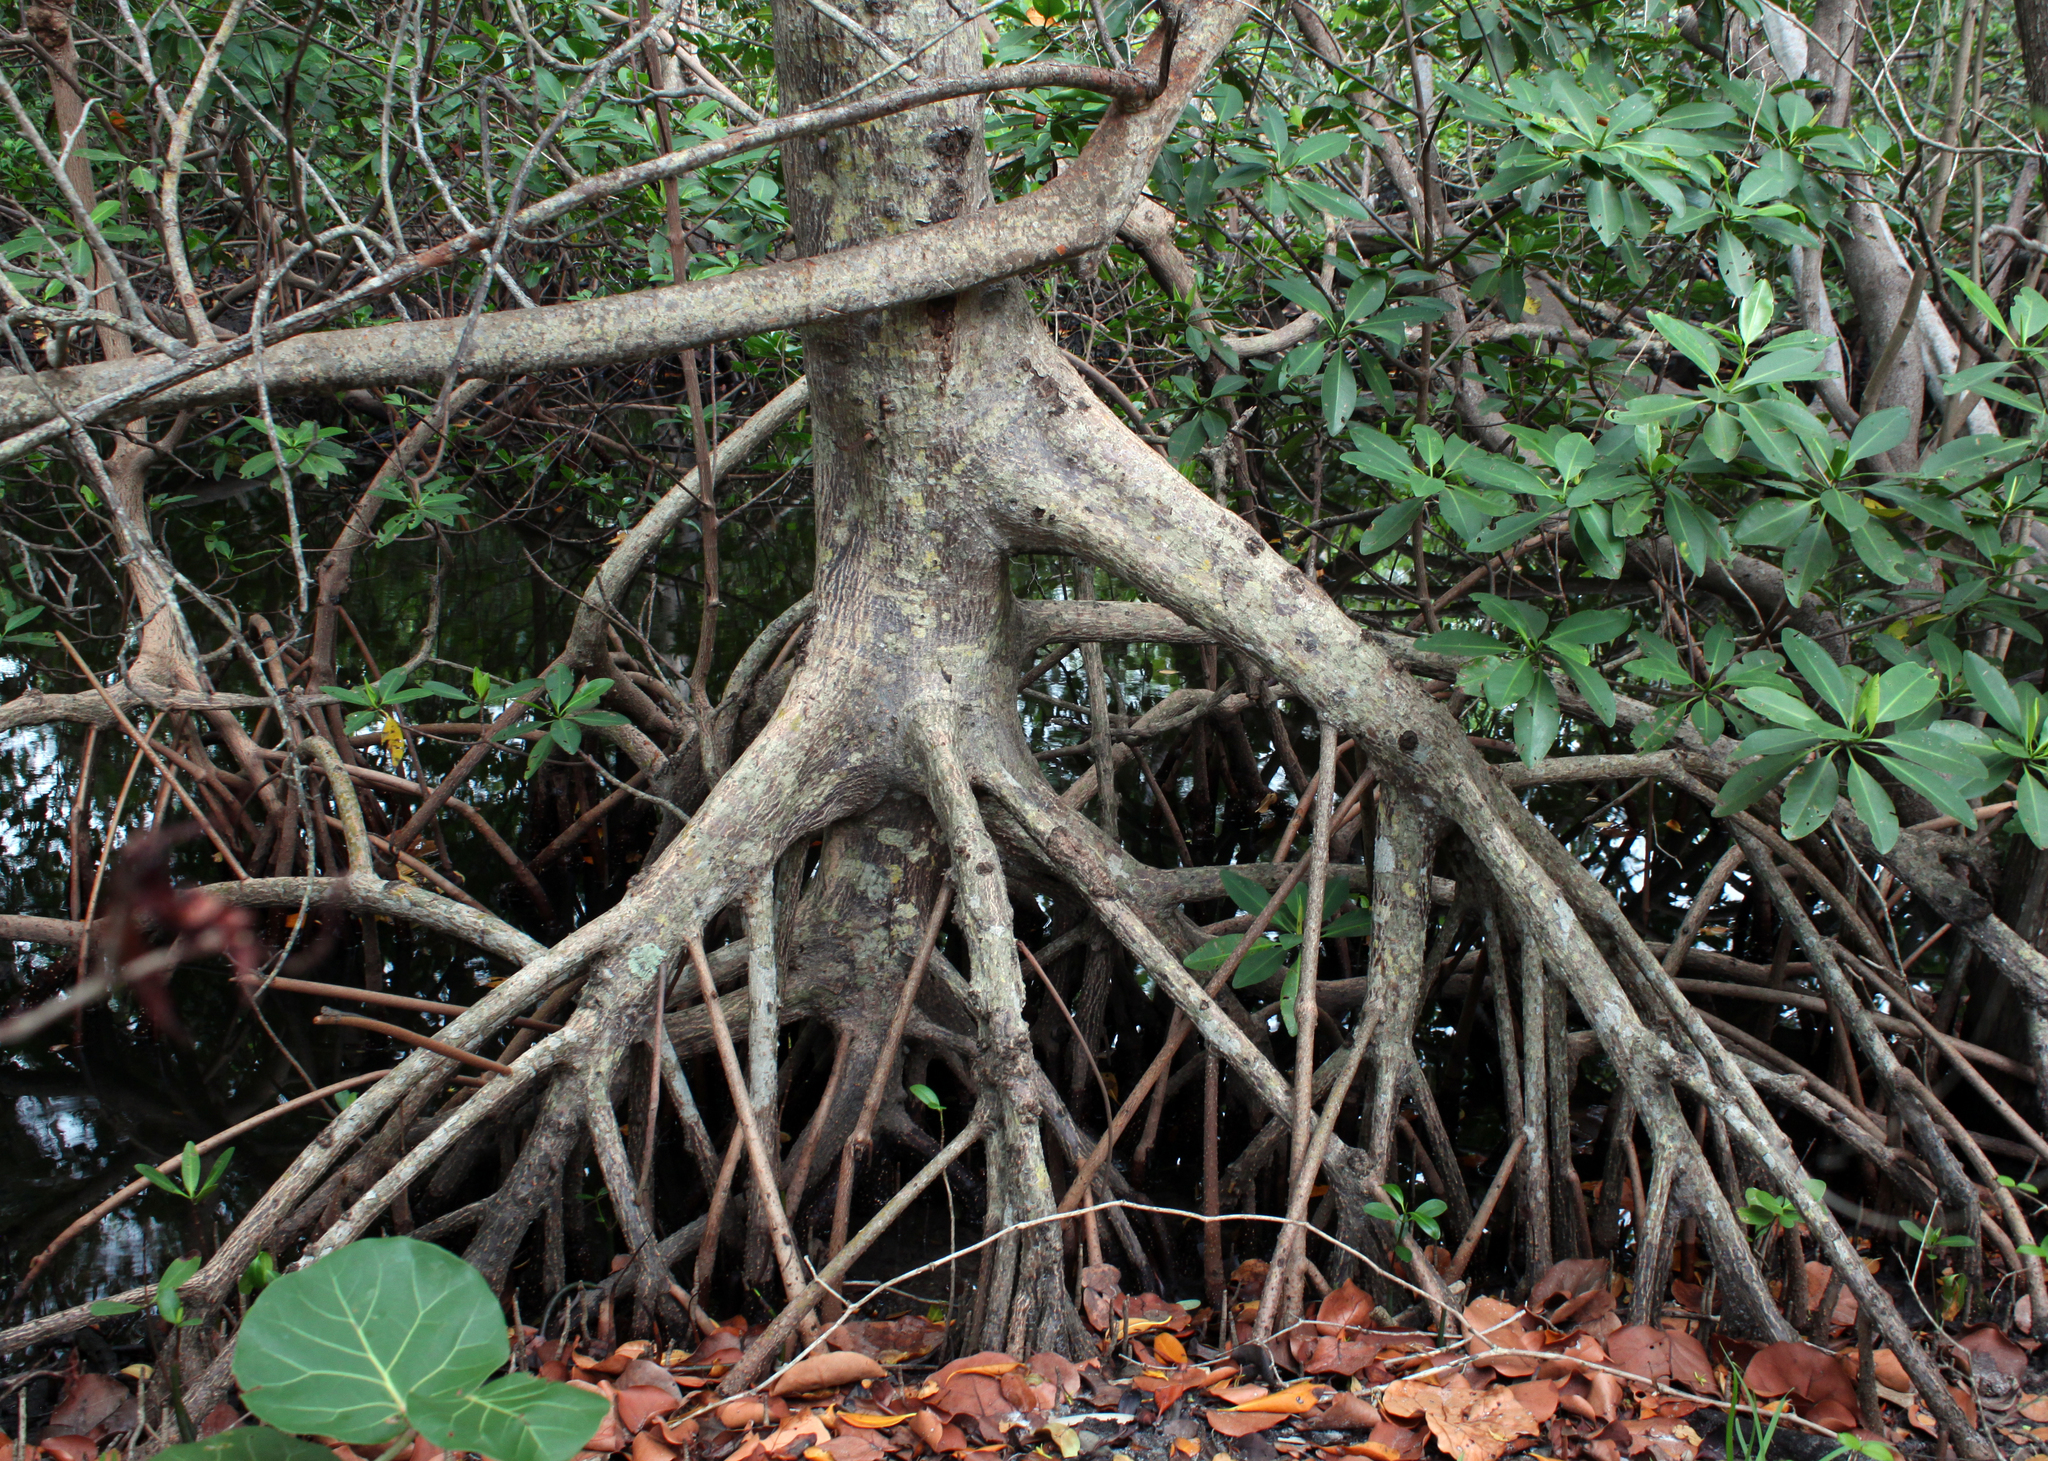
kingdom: Plantae
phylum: Tracheophyta
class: Magnoliopsida
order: Malpighiales
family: Rhizophoraceae
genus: Rhizophora
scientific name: Rhizophora mangle
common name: Red mangrove
